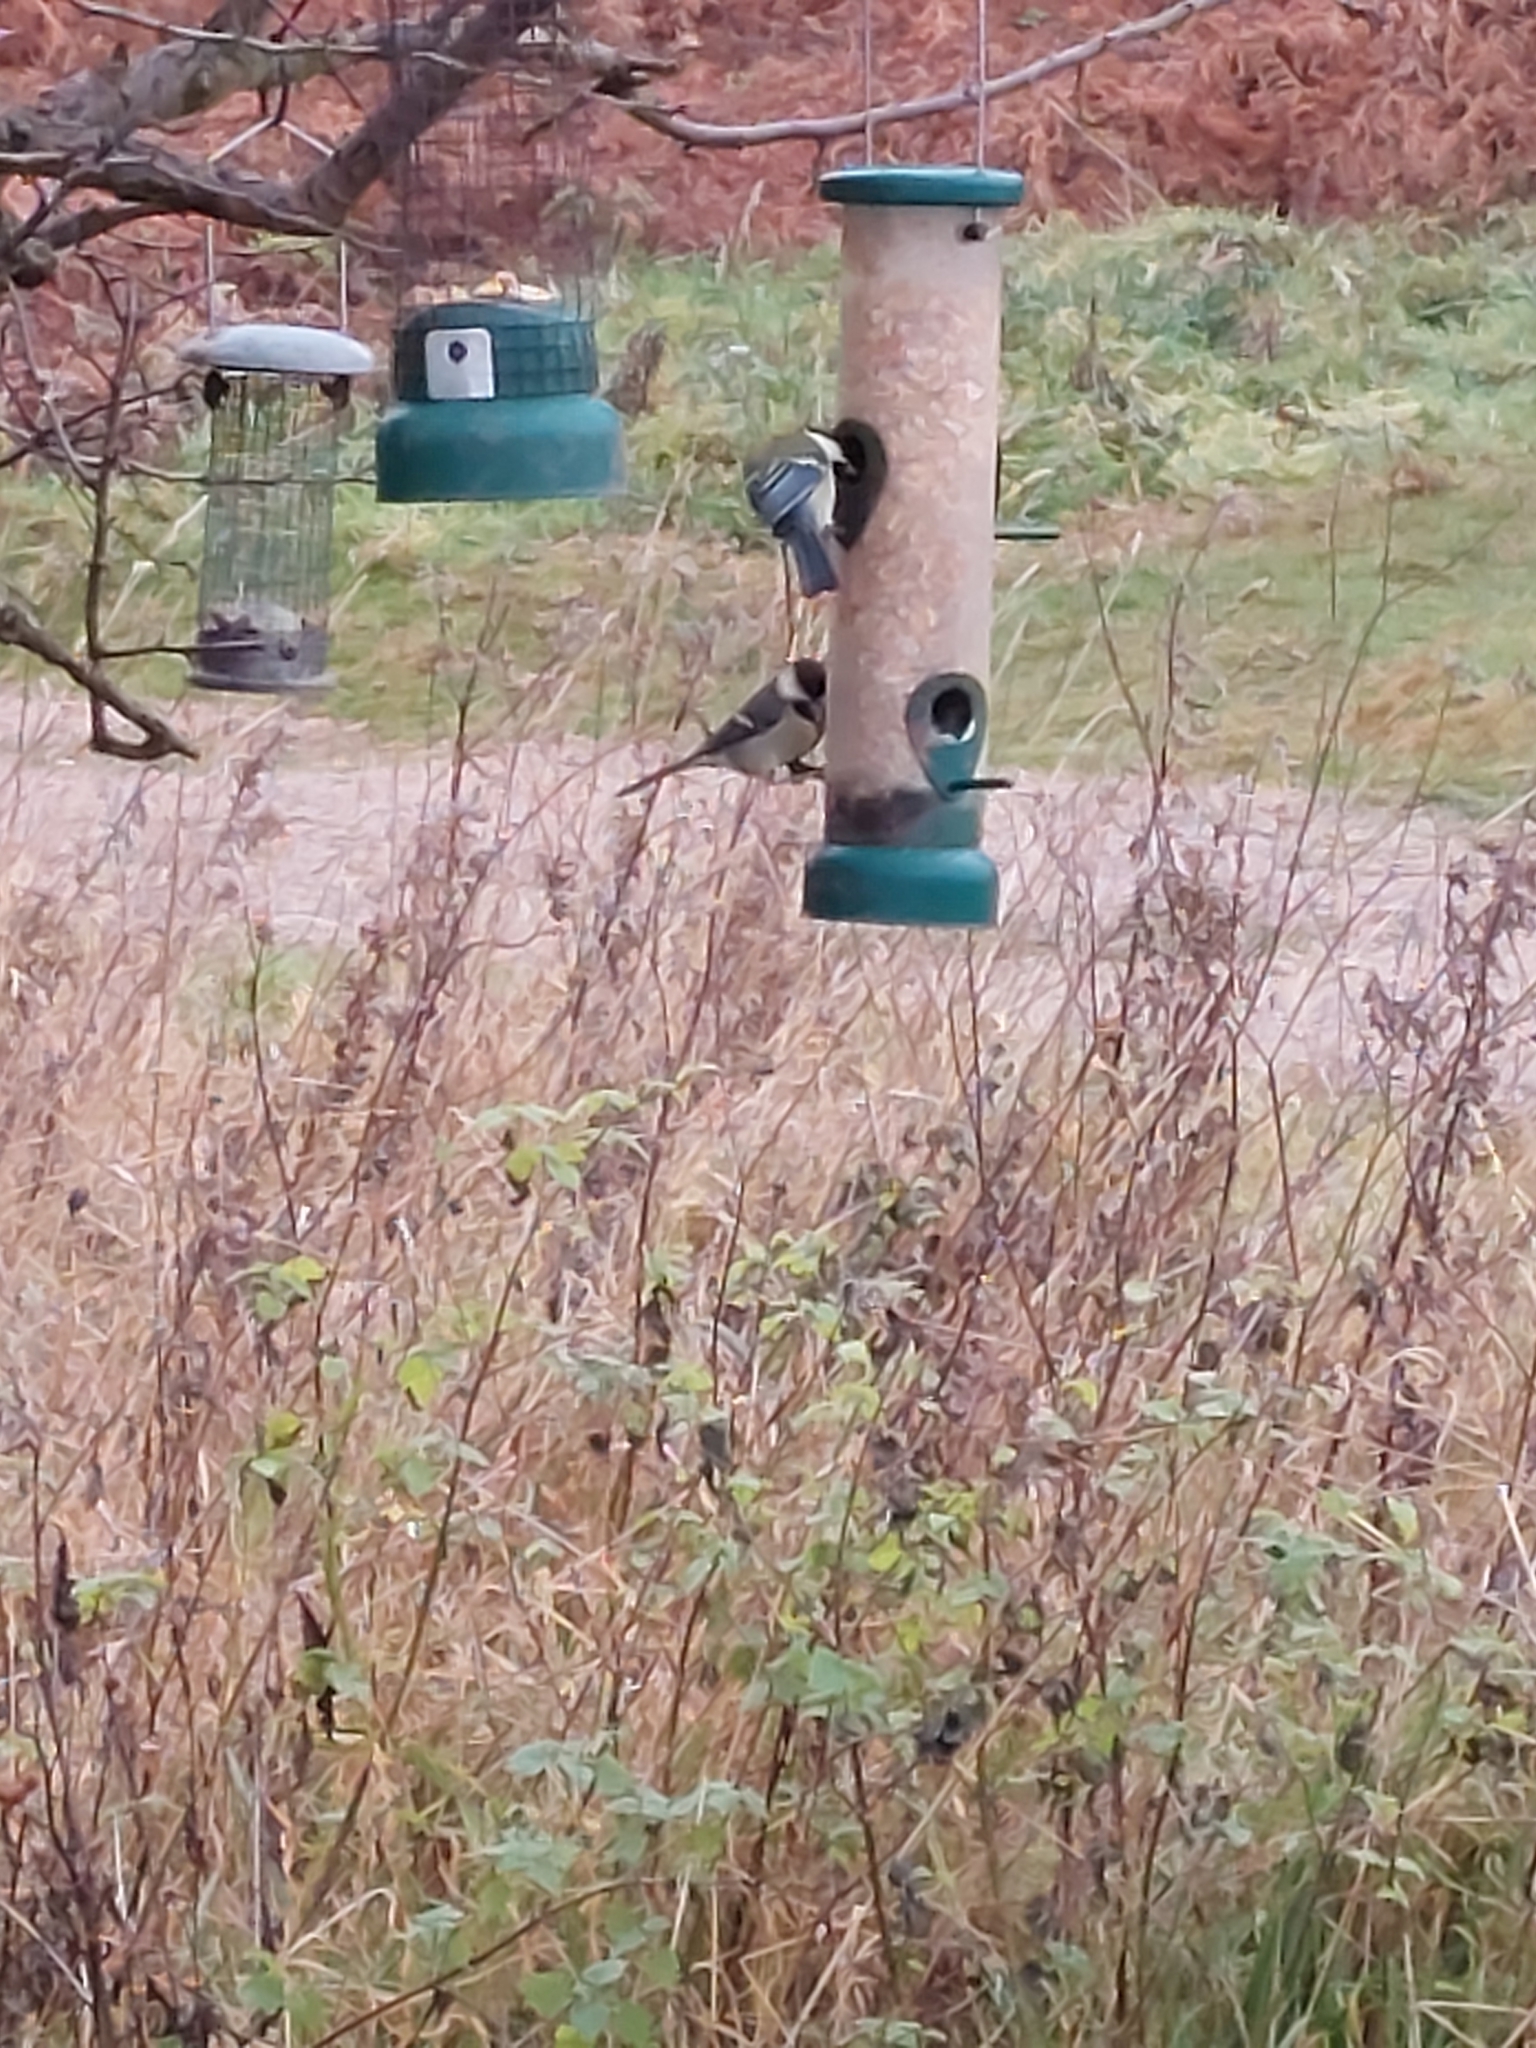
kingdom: Animalia
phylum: Chordata
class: Aves
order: Passeriformes
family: Paridae
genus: Parus
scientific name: Parus major
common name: Great tit
